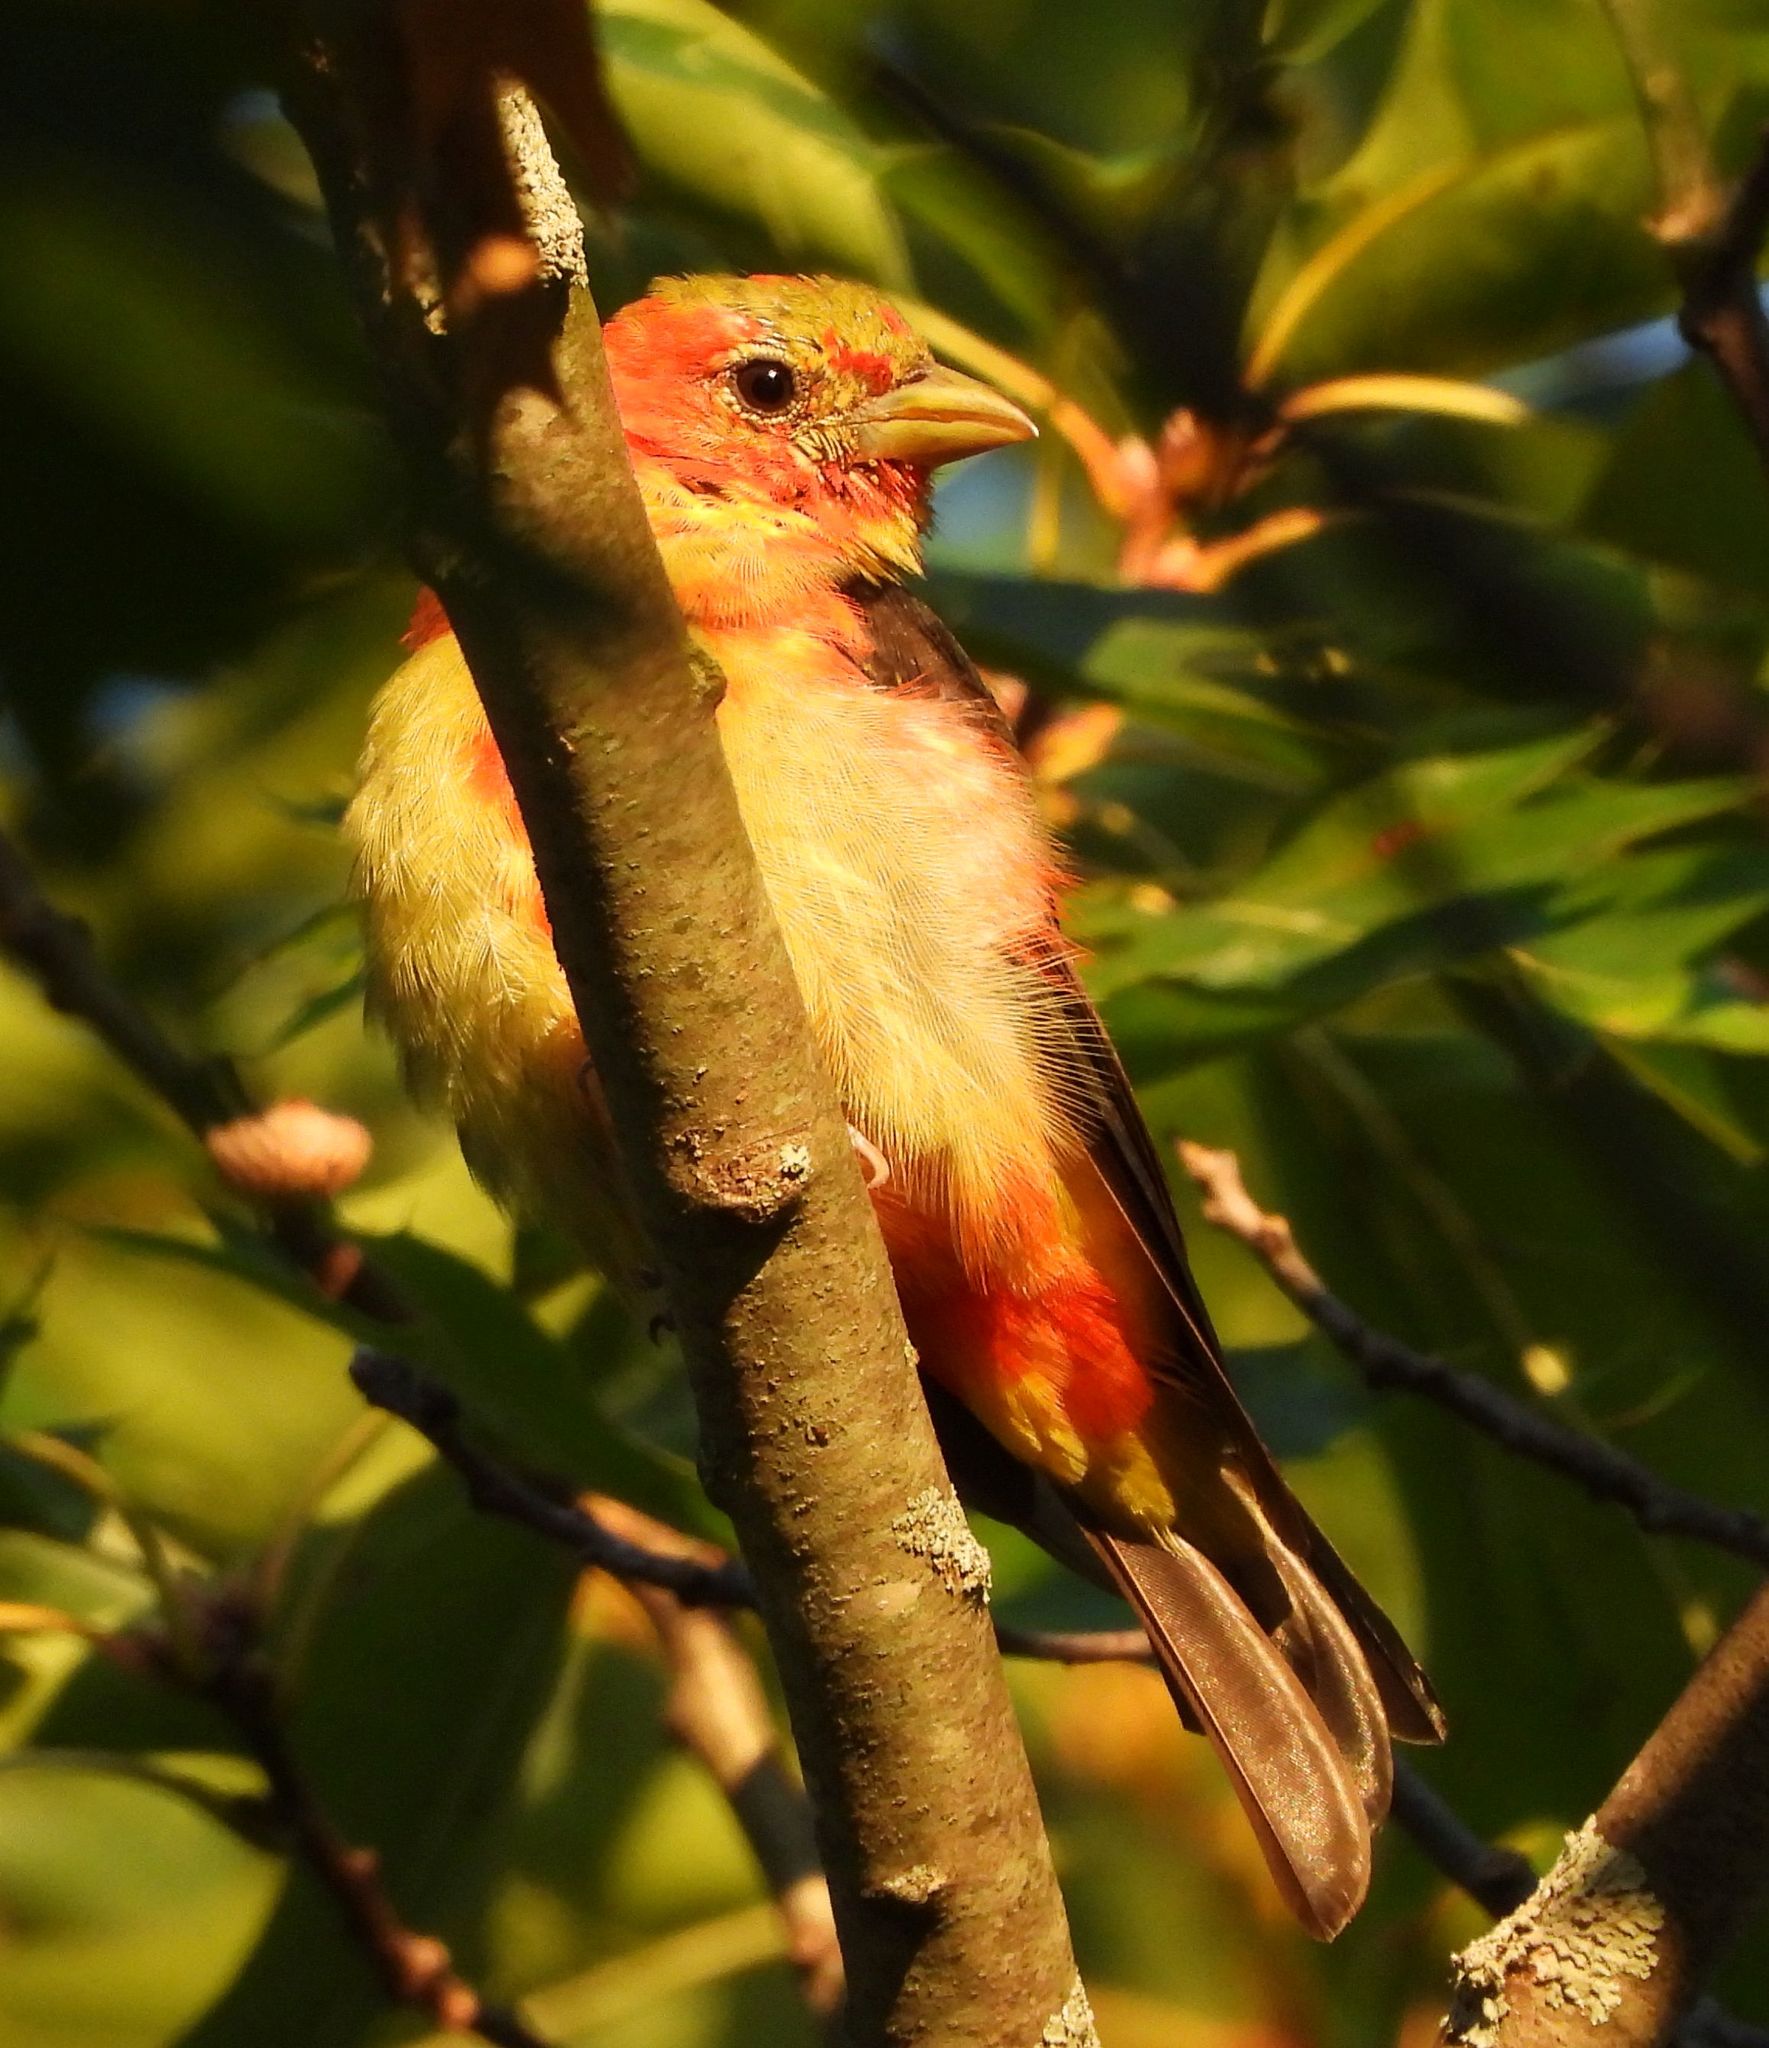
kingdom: Animalia
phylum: Chordata
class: Aves
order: Passeriformes
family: Cardinalidae
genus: Piranga
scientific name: Piranga olivacea
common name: Scarlet tanager
